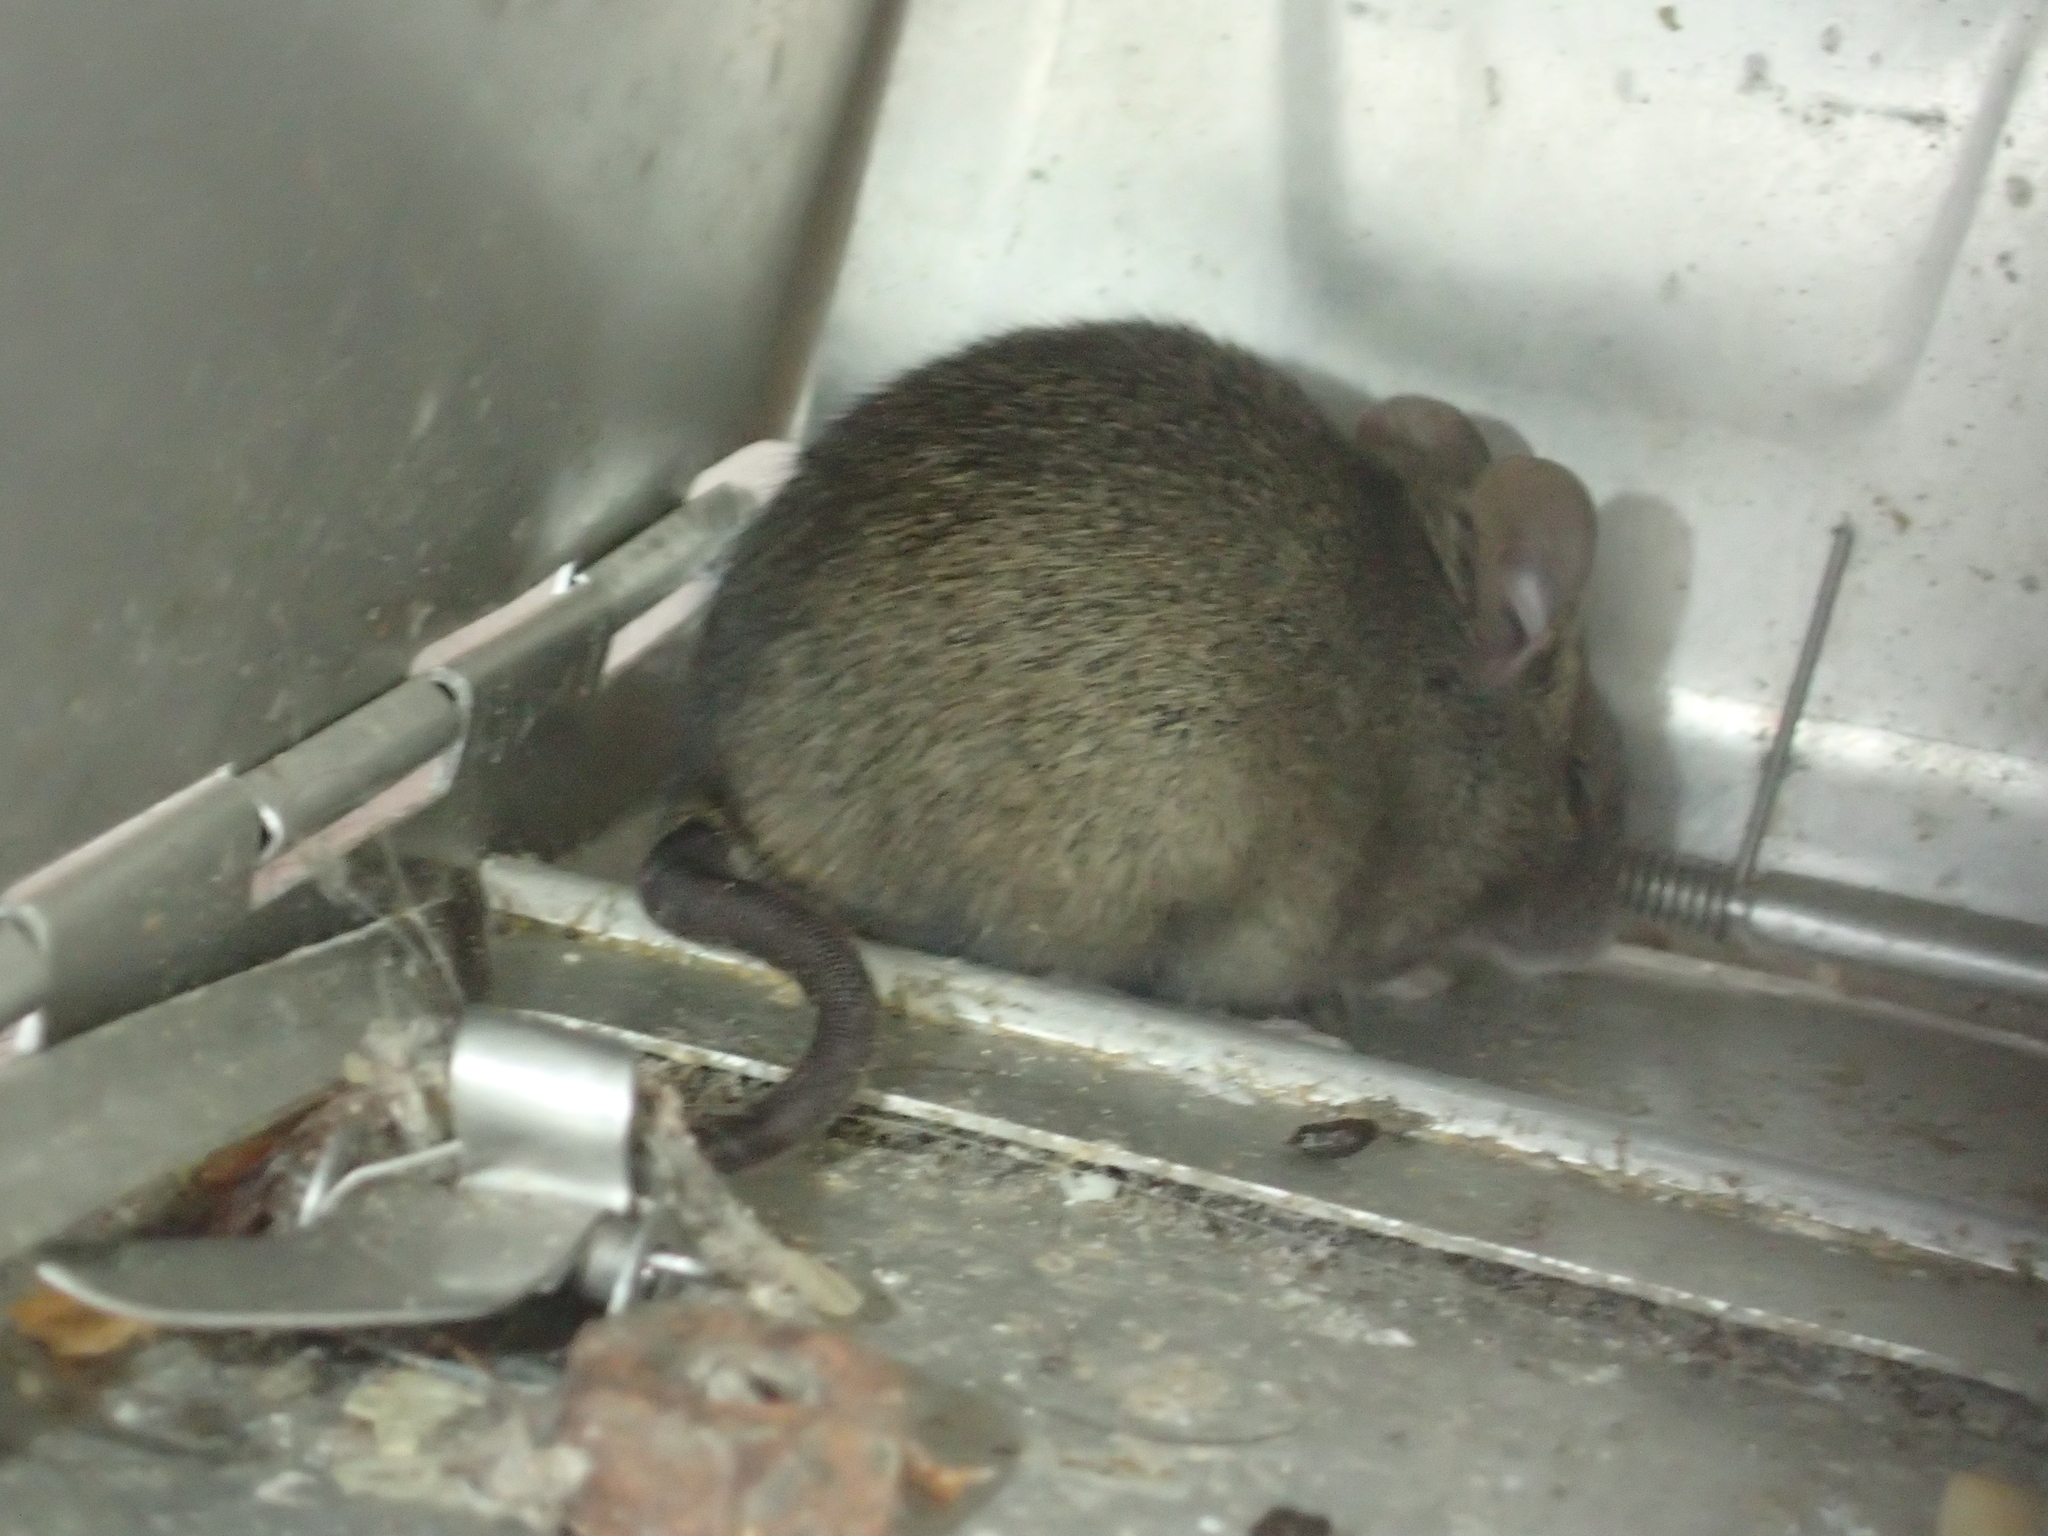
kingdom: Animalia
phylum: Chordata
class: Mammalia
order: Rodentia
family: Muridae
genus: Mus
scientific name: Mus musculus
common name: House mouse
